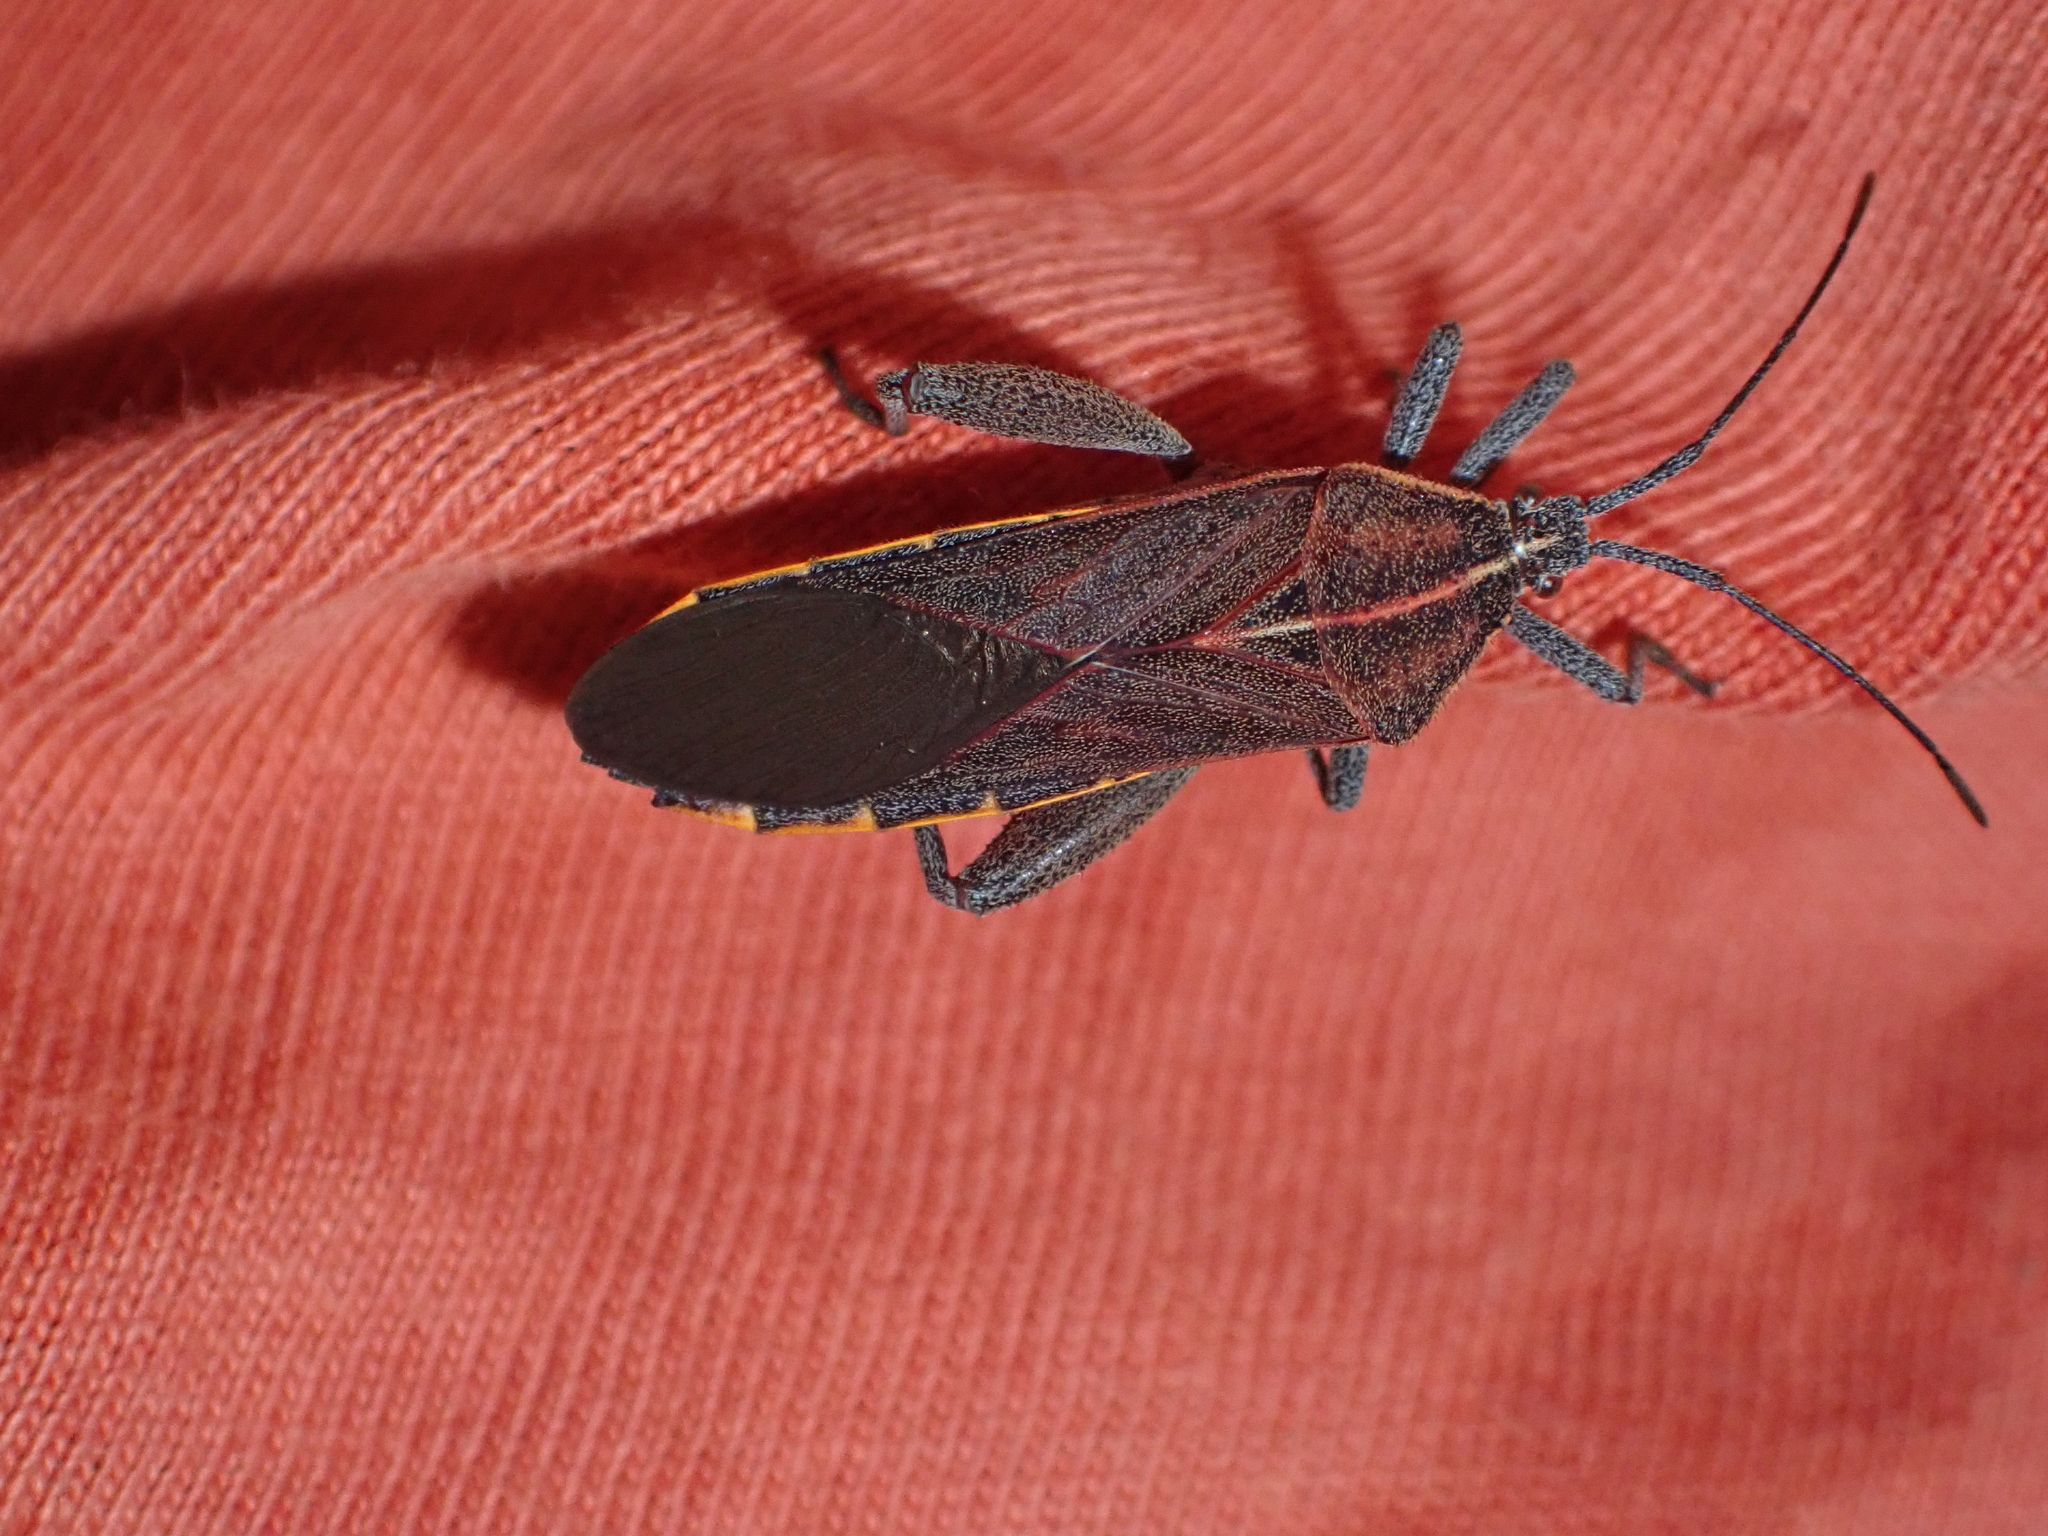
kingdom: Animalia
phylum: Arthropoda
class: Insecta
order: Hemiptera
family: Coreidae
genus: Physomerus
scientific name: Physomerus grossipes
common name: Squash bug
